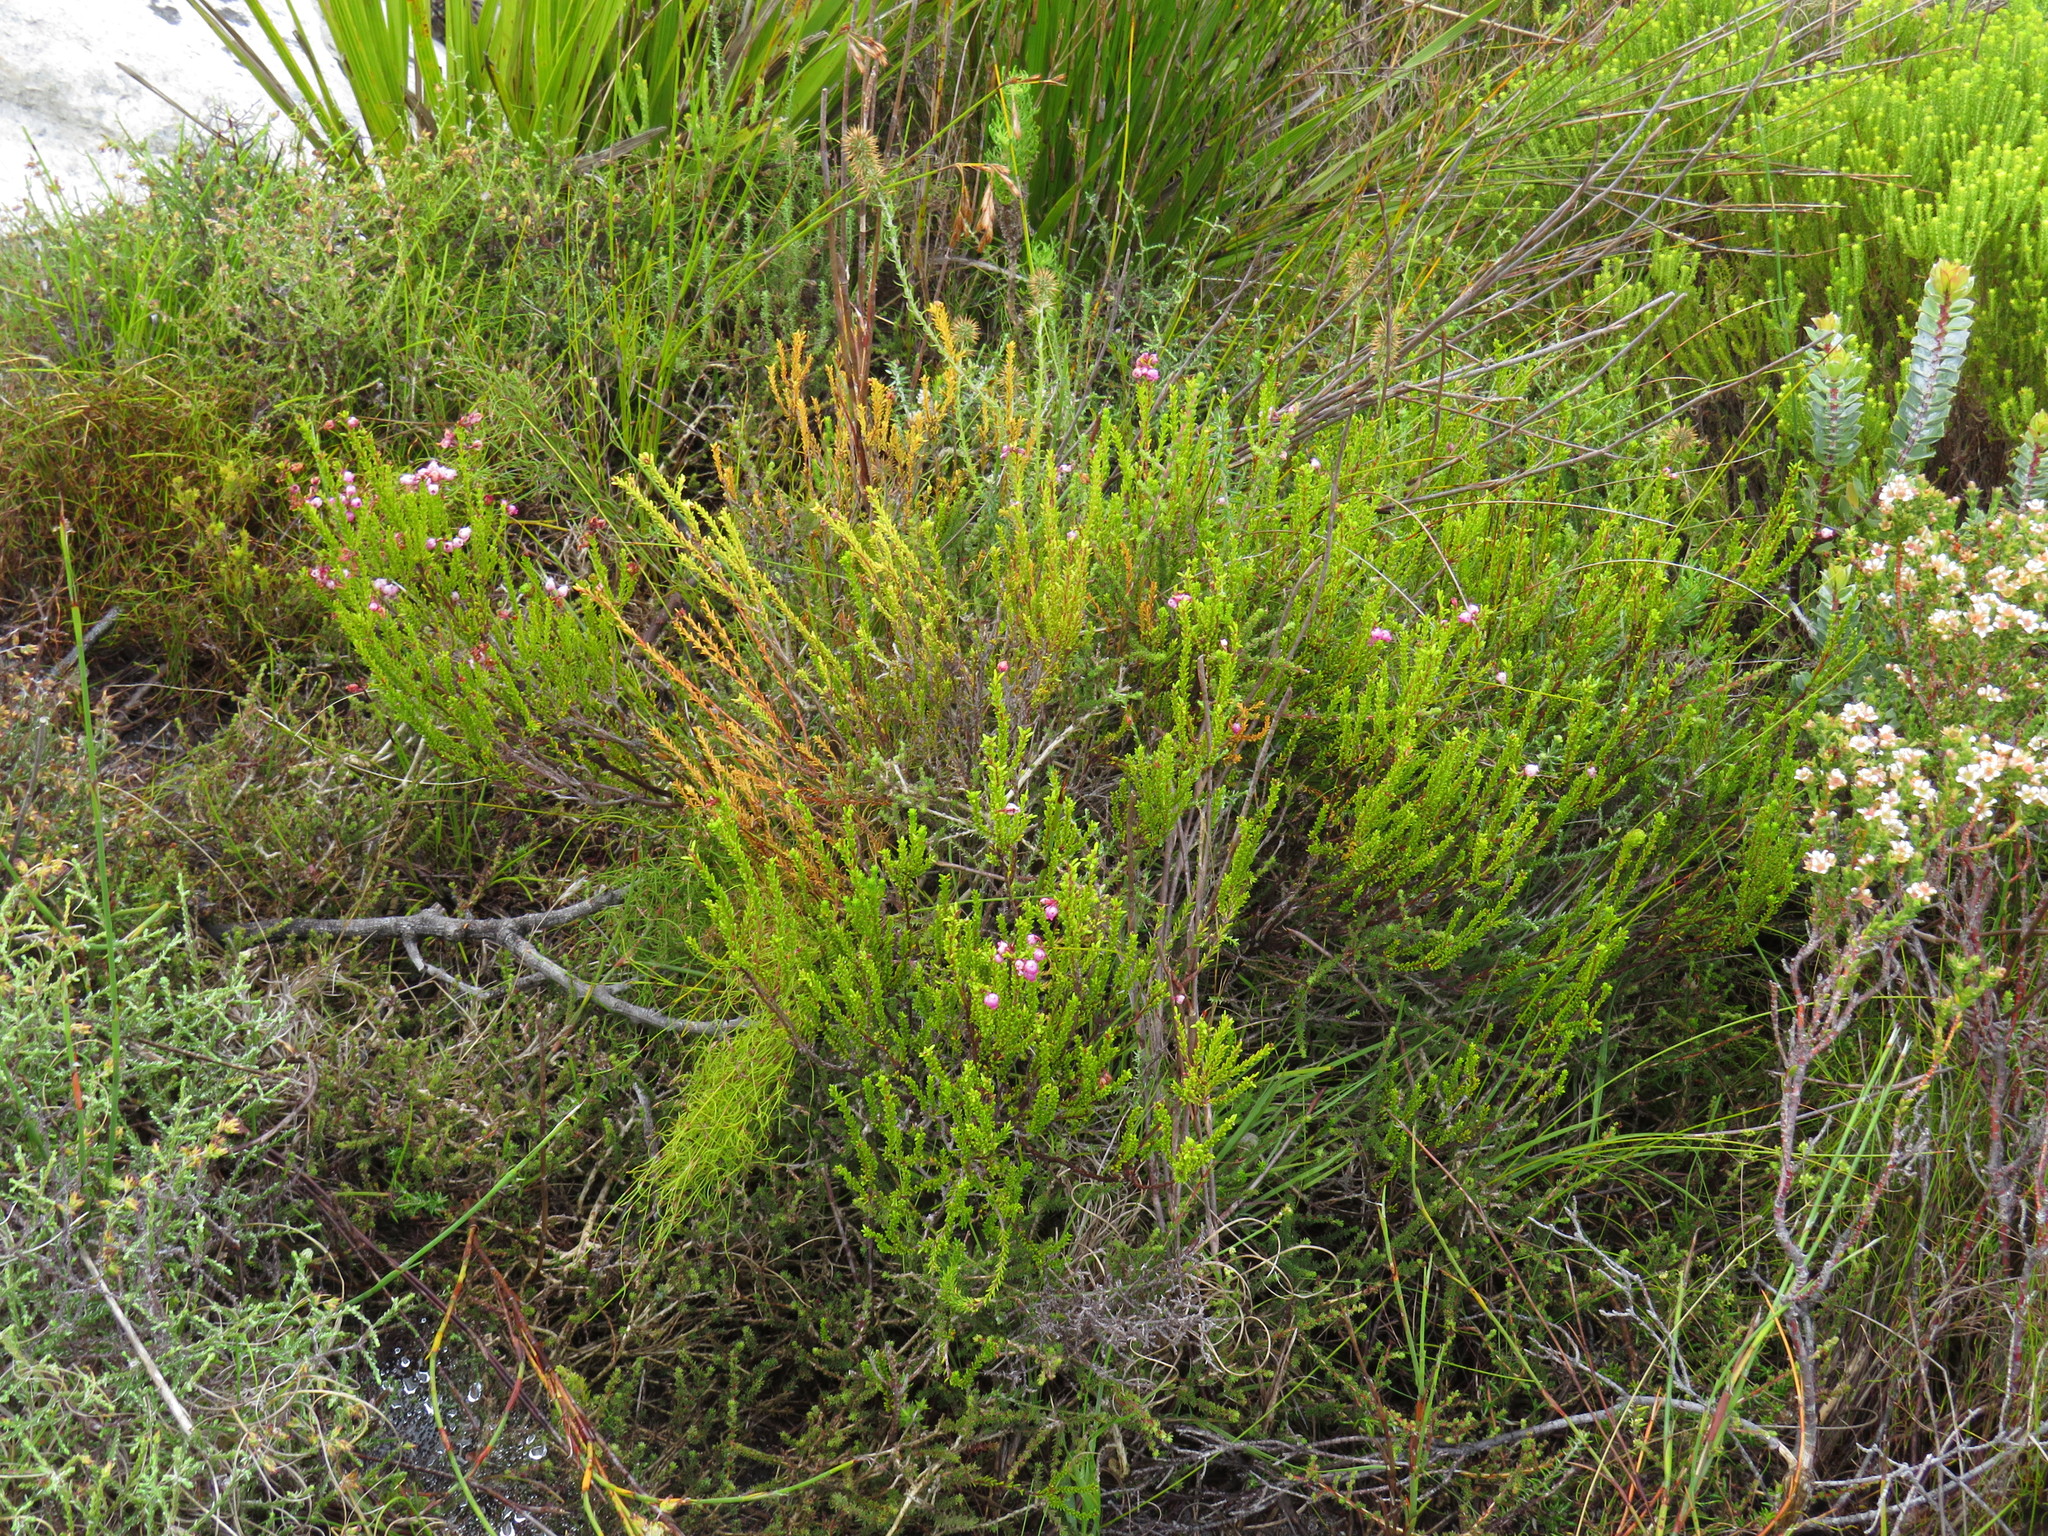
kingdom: Plantae
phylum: Tracheophyta
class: Magnoliopsida
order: Ericales
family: Ericaceae
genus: Erica
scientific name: Erica ferrea
